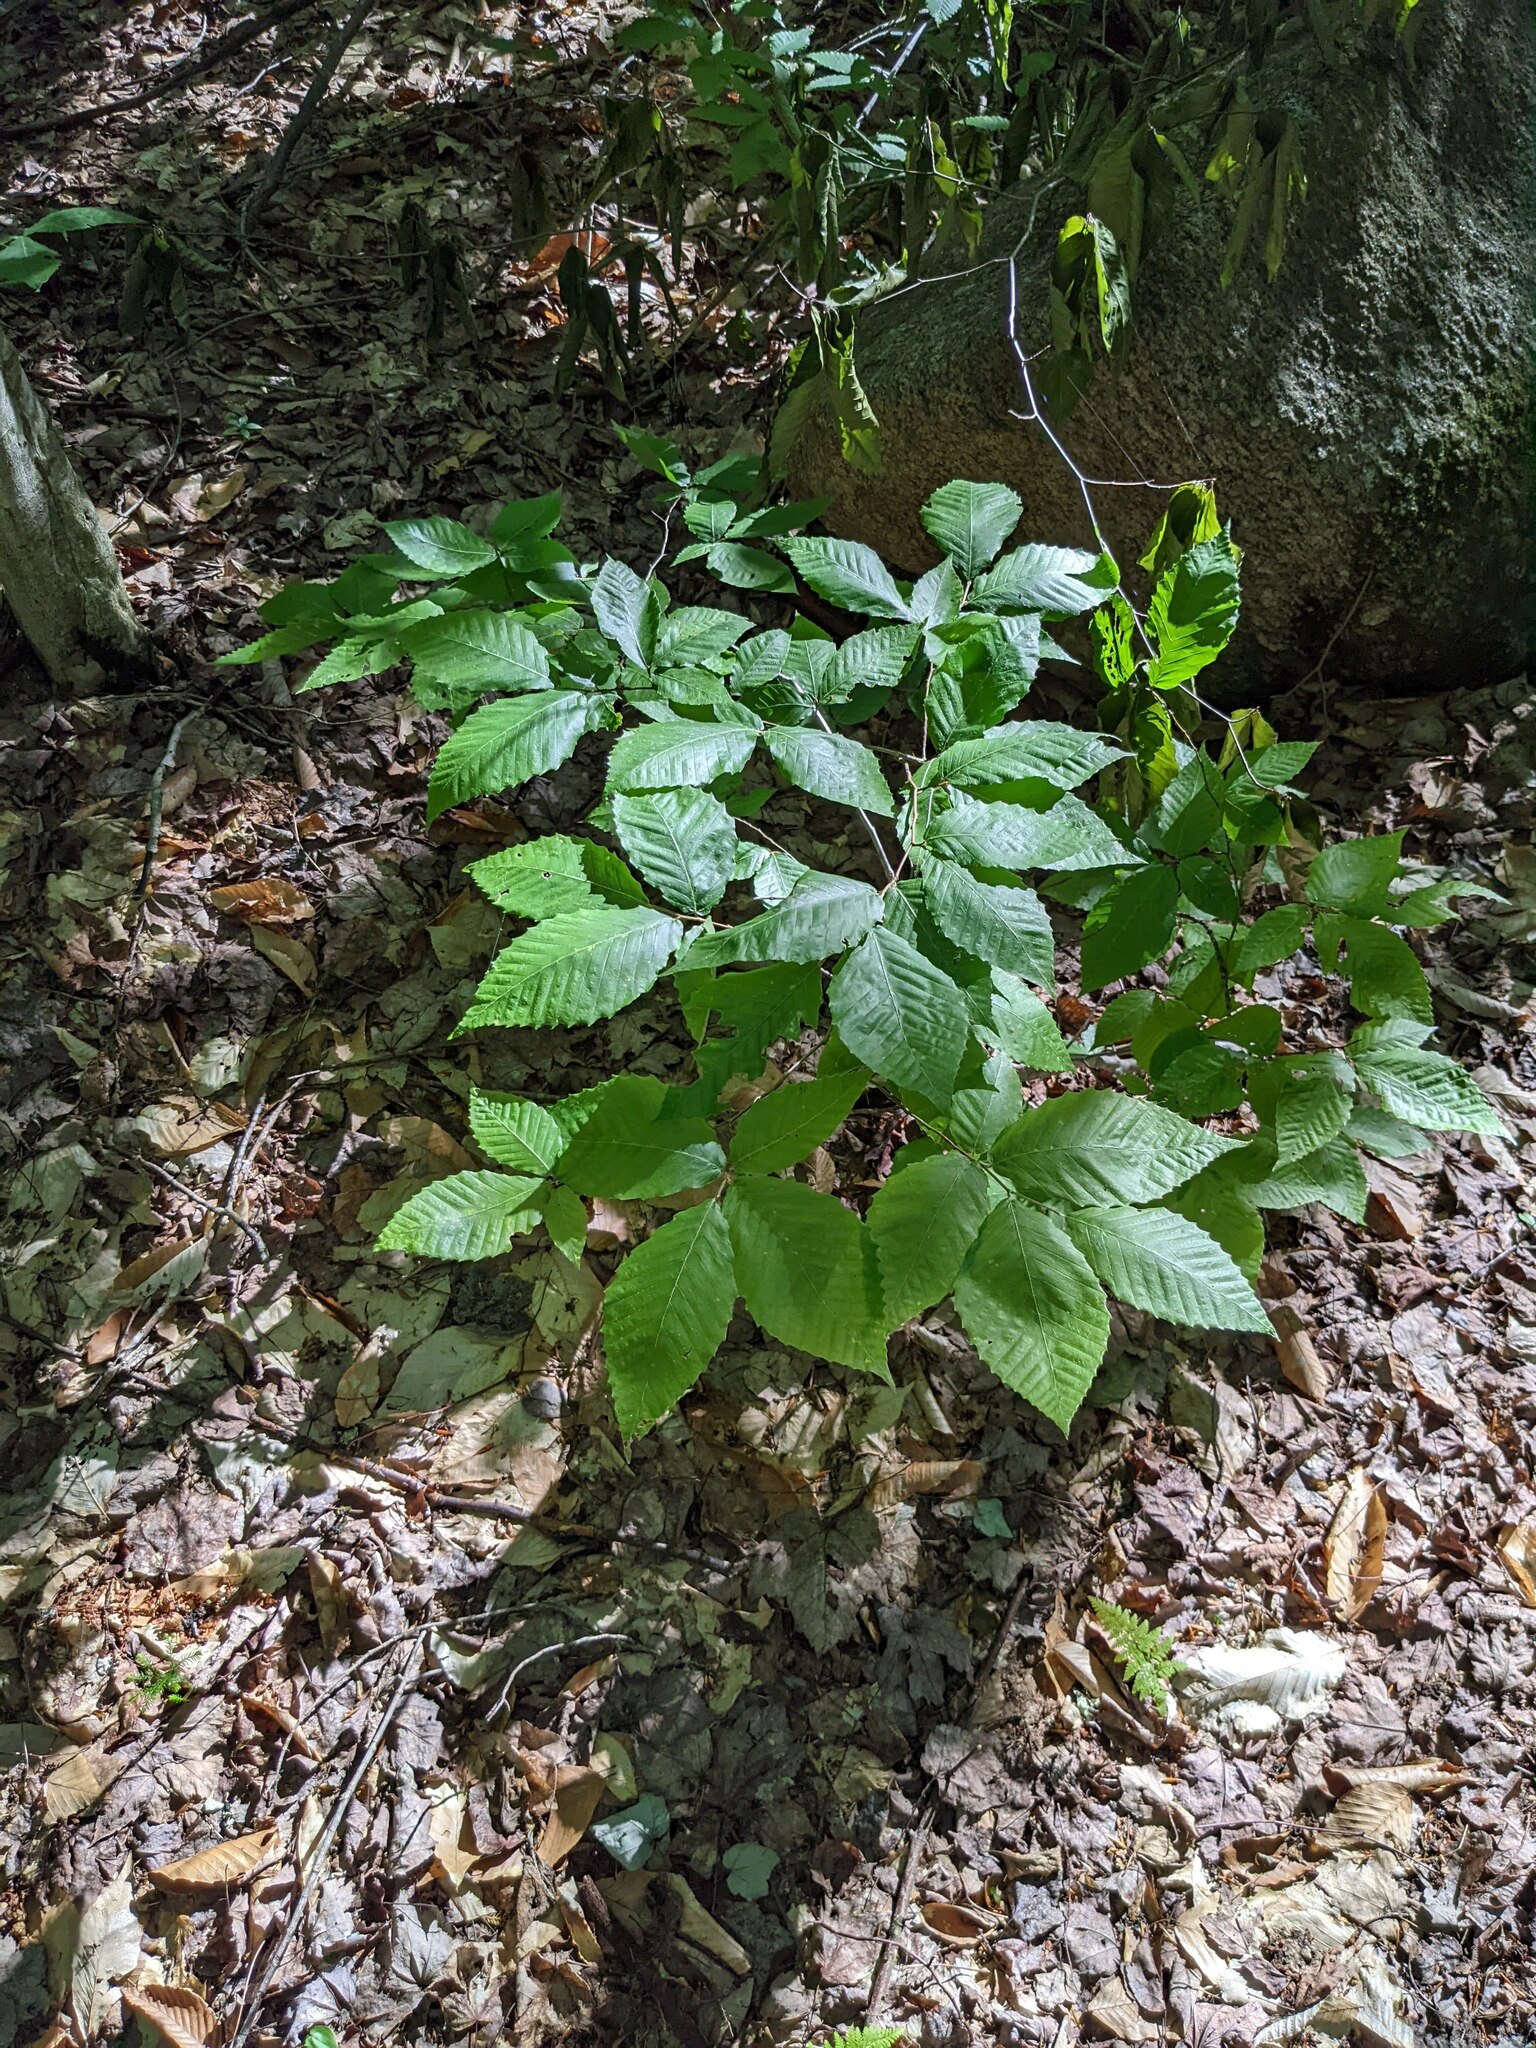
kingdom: Plantae
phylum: Tracheophyta
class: Magnoliopsida
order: Fagales
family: Fagaceae
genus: Fagus
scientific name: Fagus grandifolia
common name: American beech
